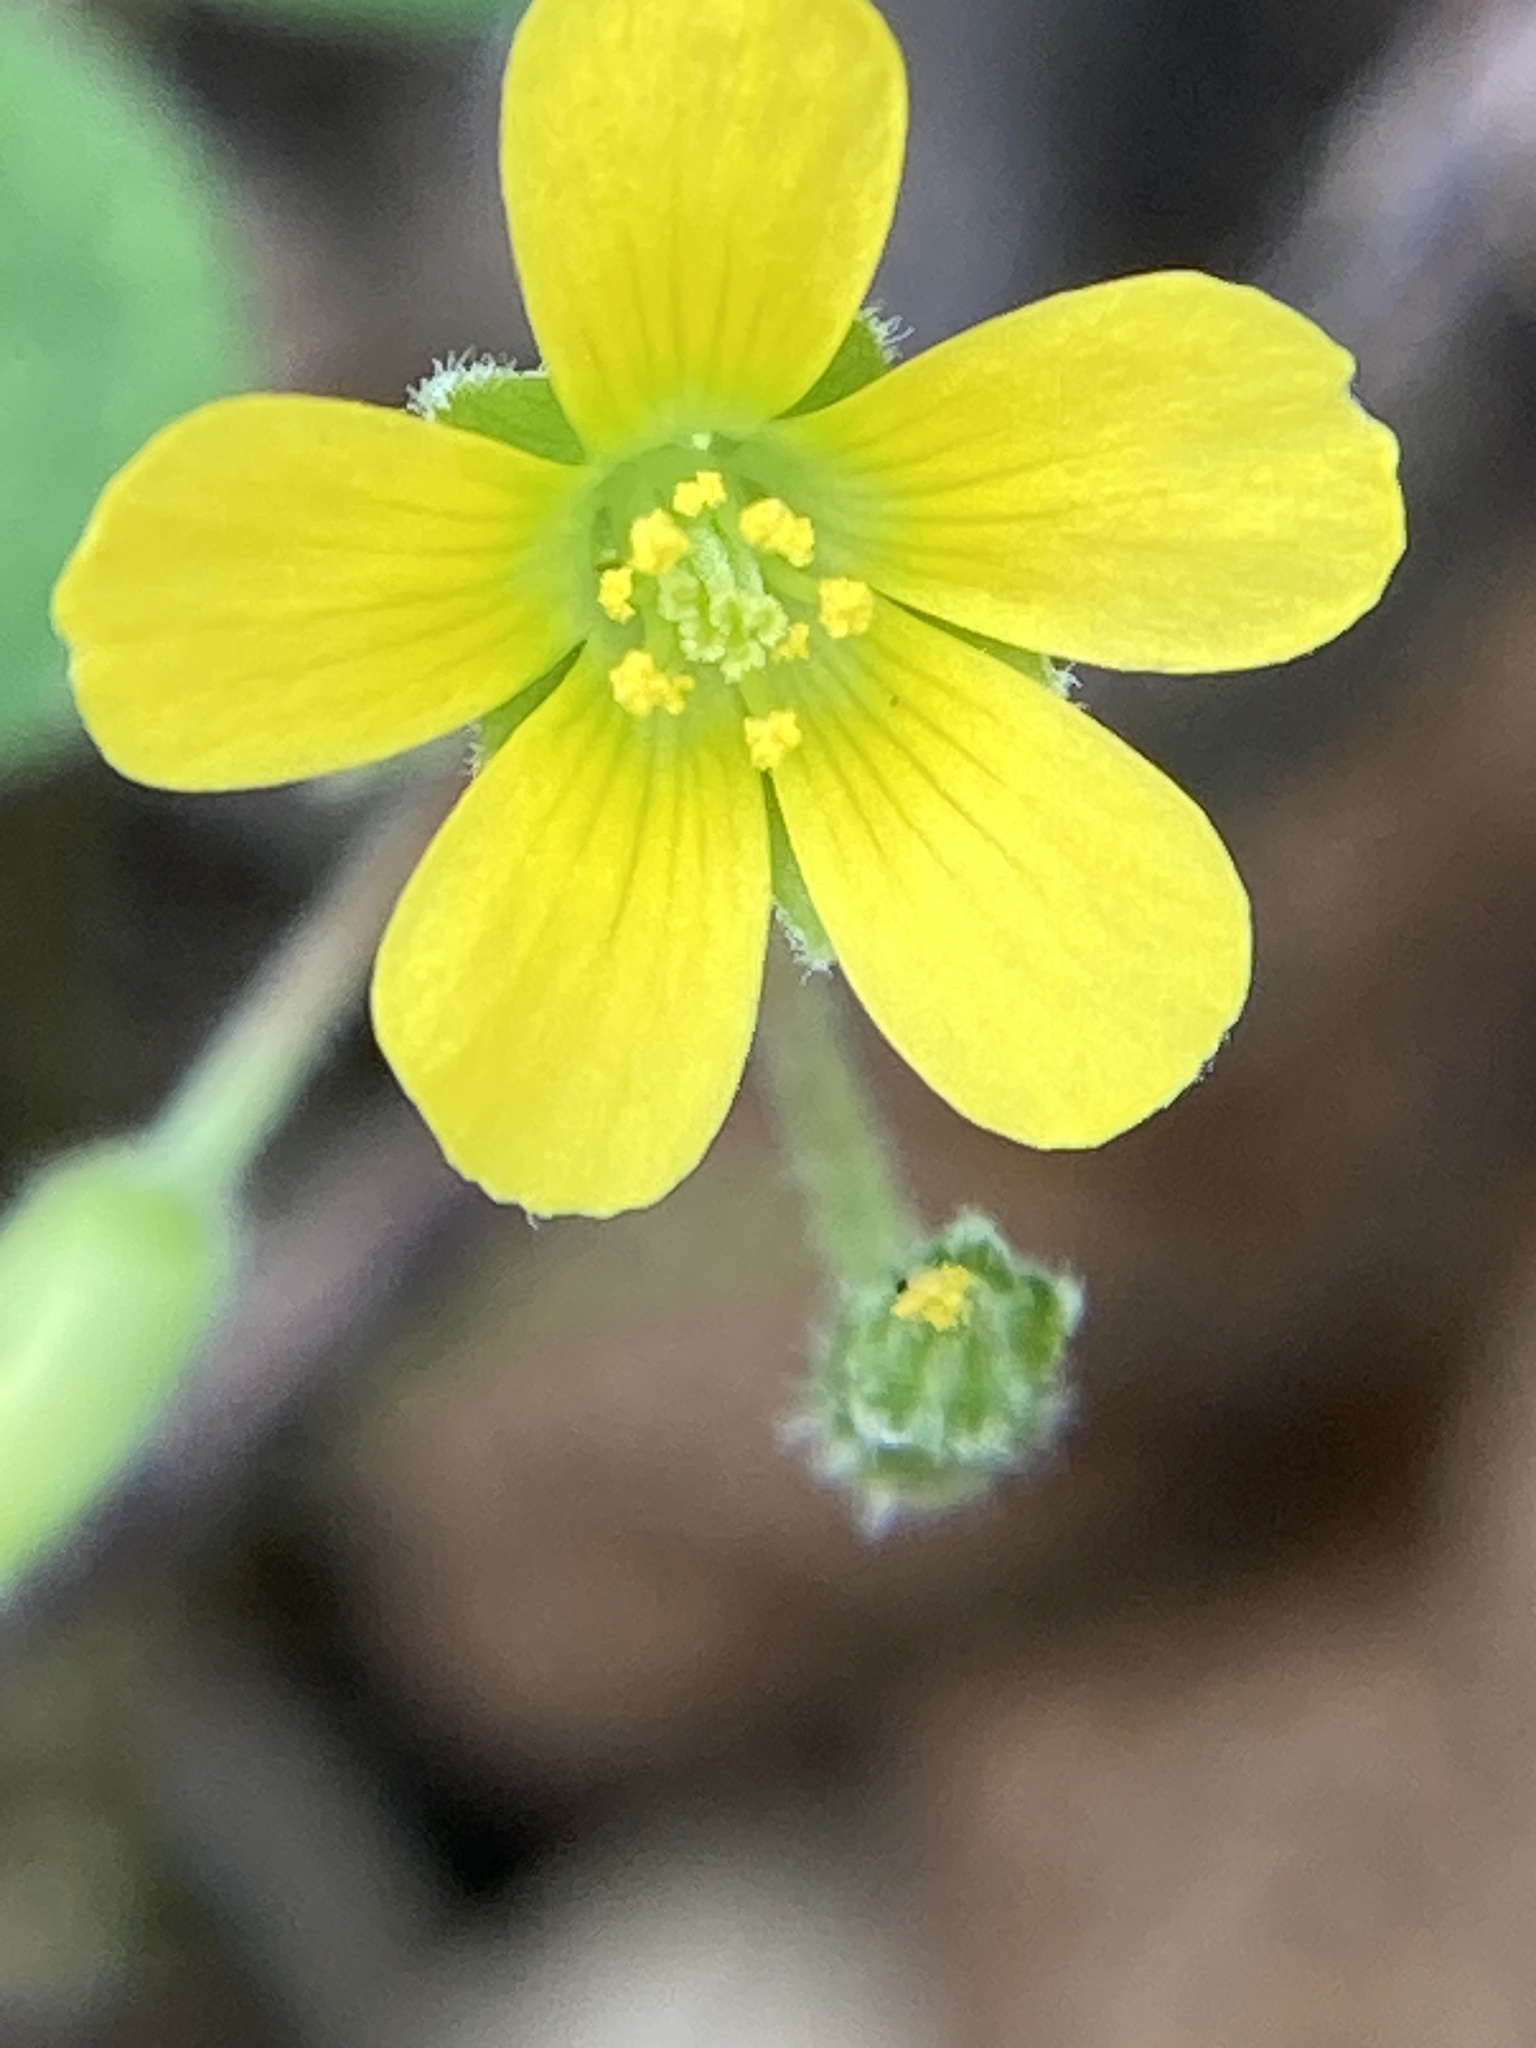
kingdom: Plantae
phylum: Tracheophyta
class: Magnoliopsida
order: Oxalidales
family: Oxalidaceae
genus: Oxalis
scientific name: Oxalis dillenii
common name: Sussex yellow-sorrel
